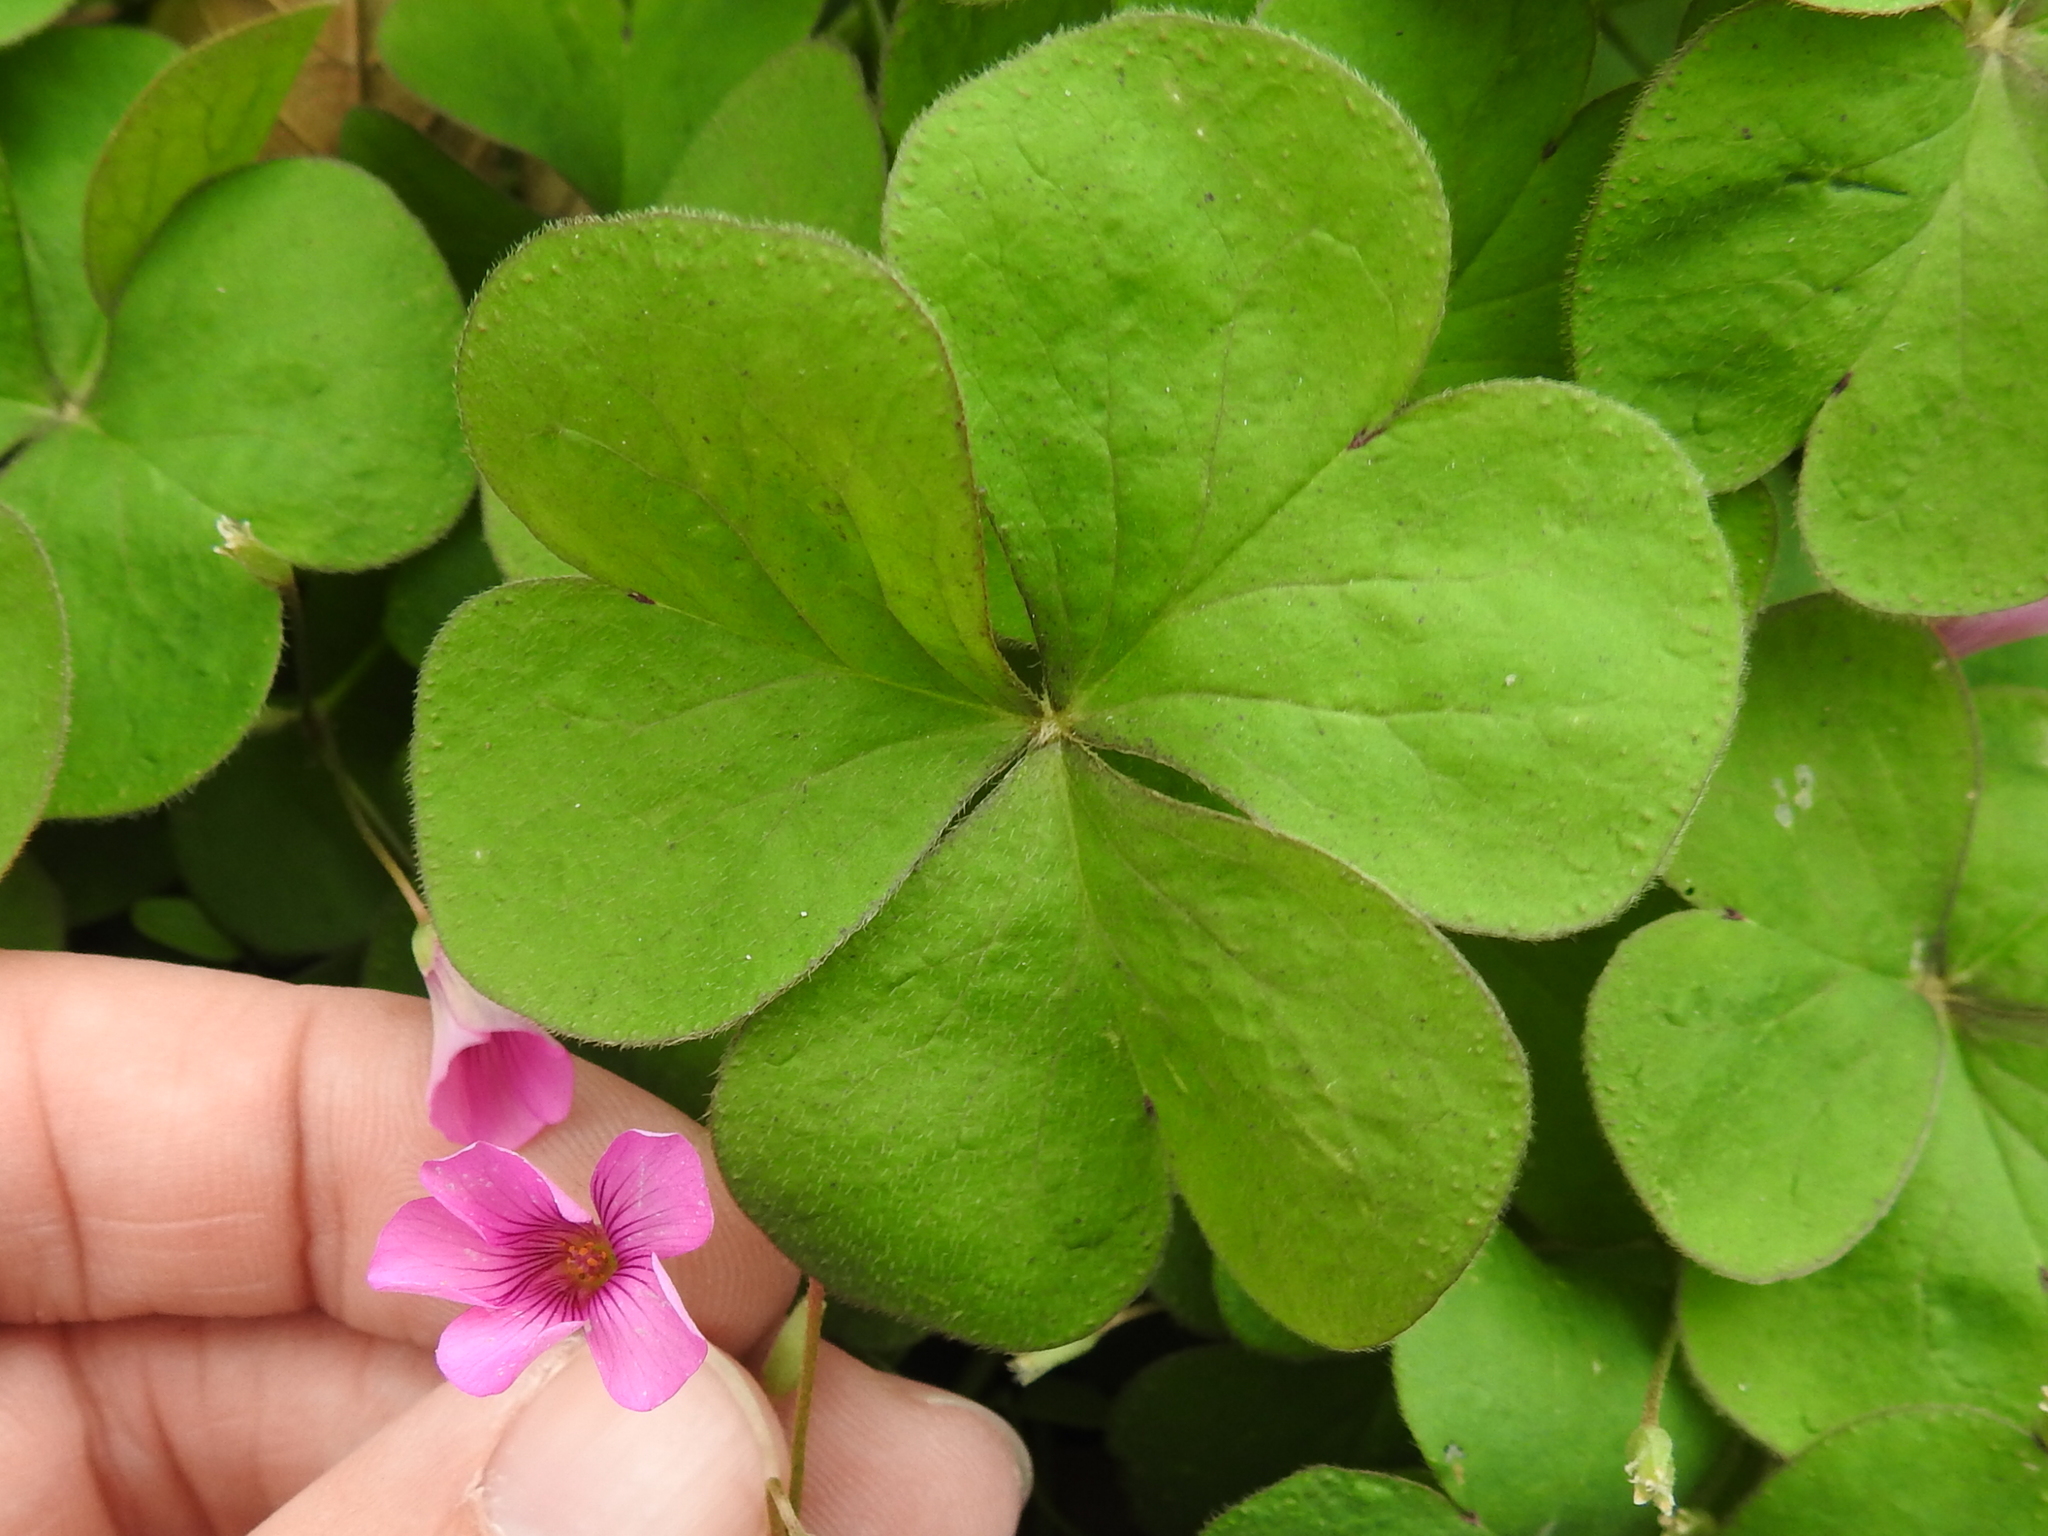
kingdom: Plantae
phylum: Tracheophyta
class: Magnoliopsida
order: Oxalidales
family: Oxalidaceae
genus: Oxalis
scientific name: Oxalis articulata
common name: Pink-sorrel
